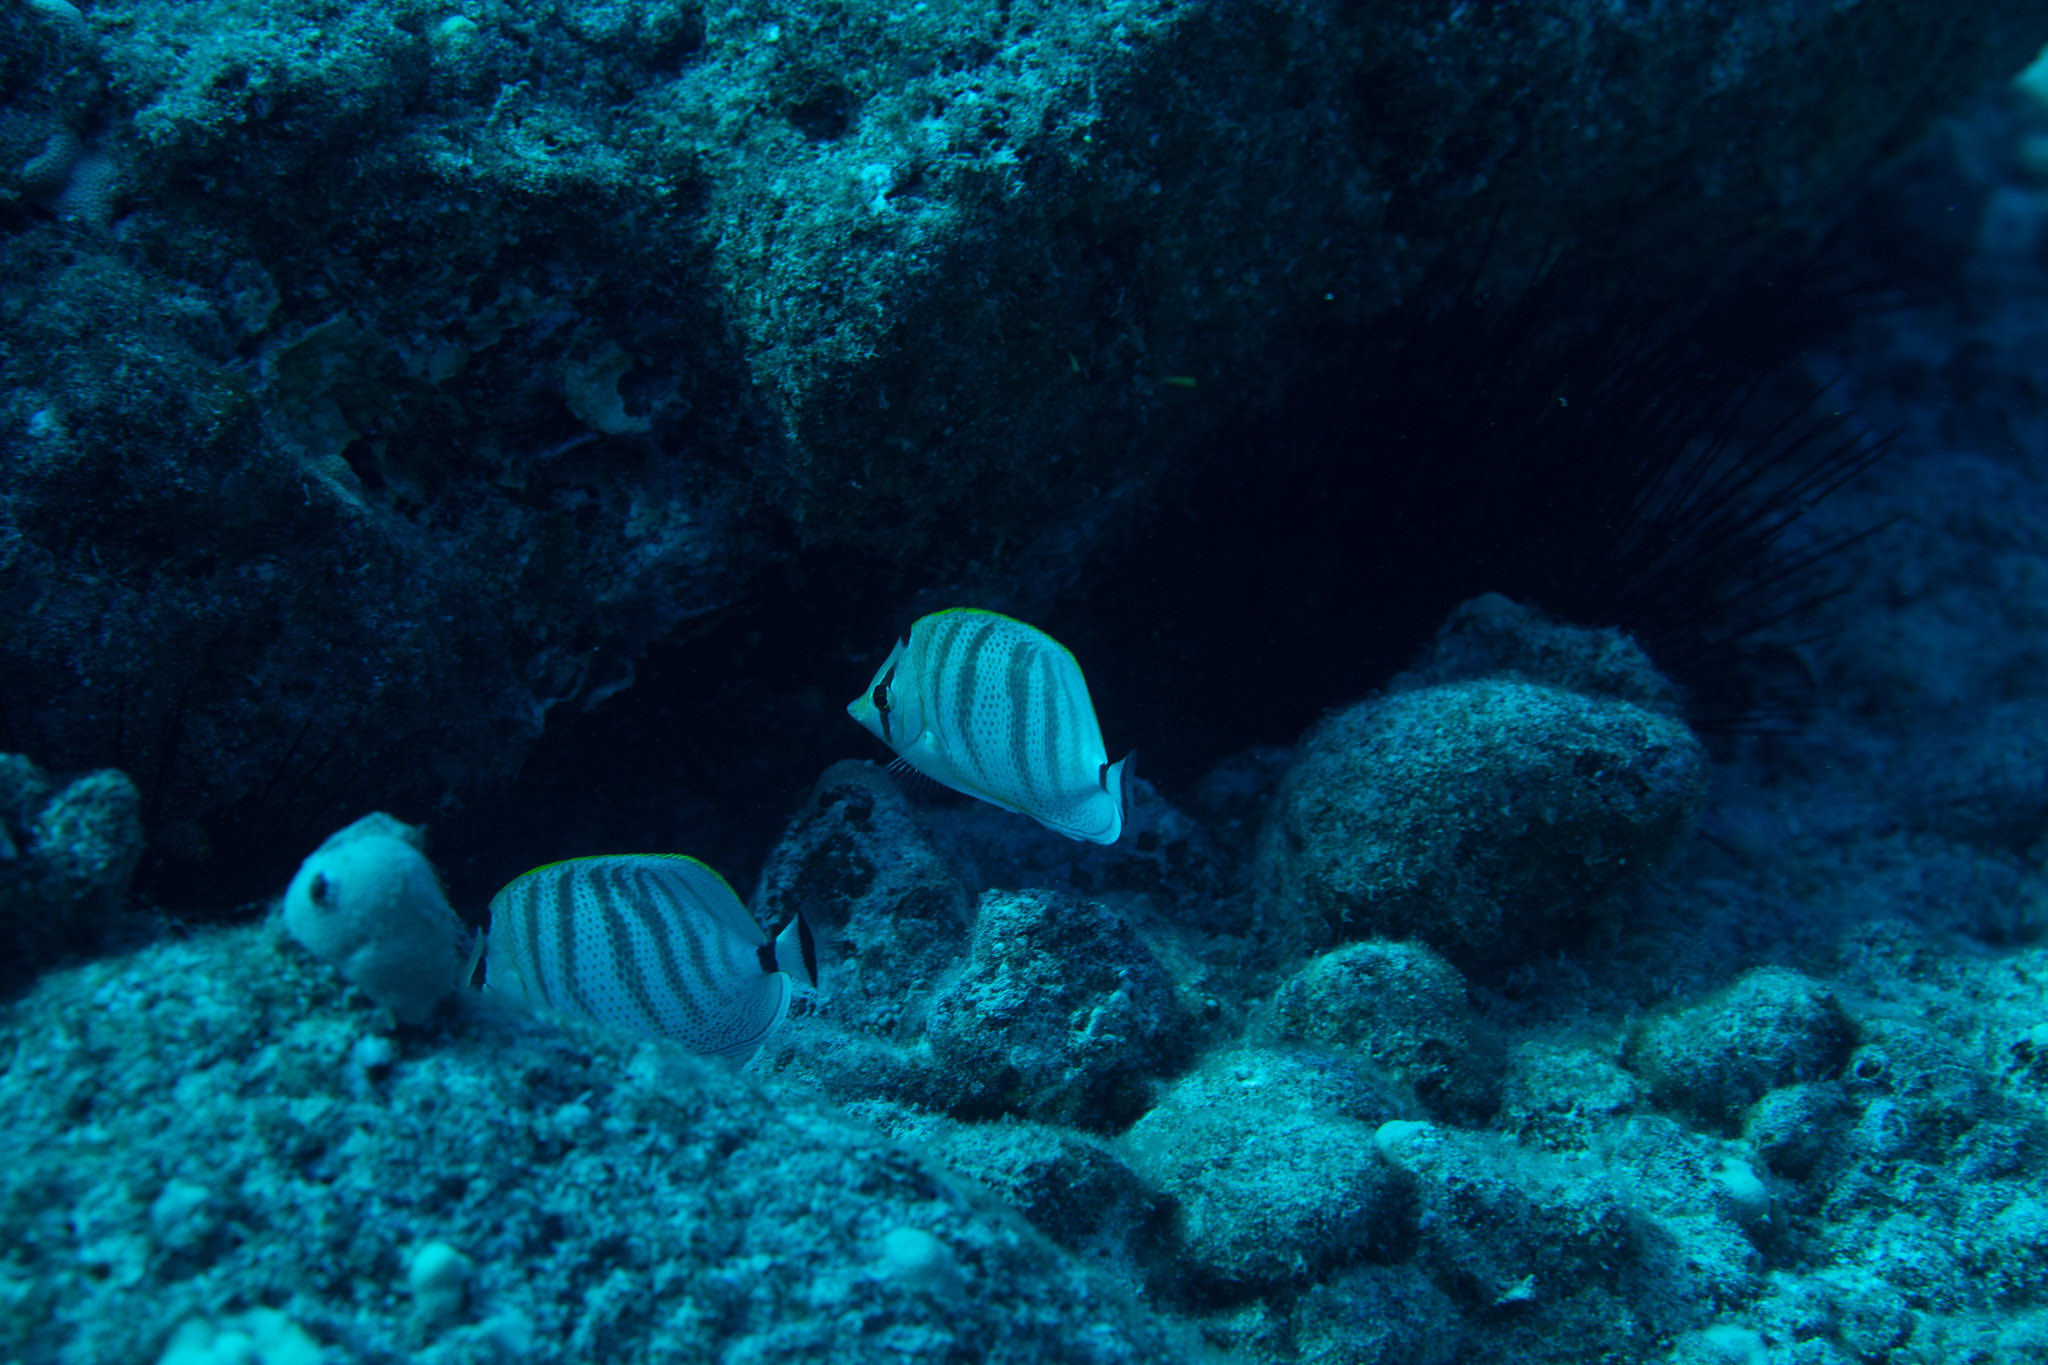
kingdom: Animalia
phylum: Chordata
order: Perciformes
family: Chaetodontidae
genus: Chaetodon
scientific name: Chaetodon multicinctus
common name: Multiband butterflyfish
